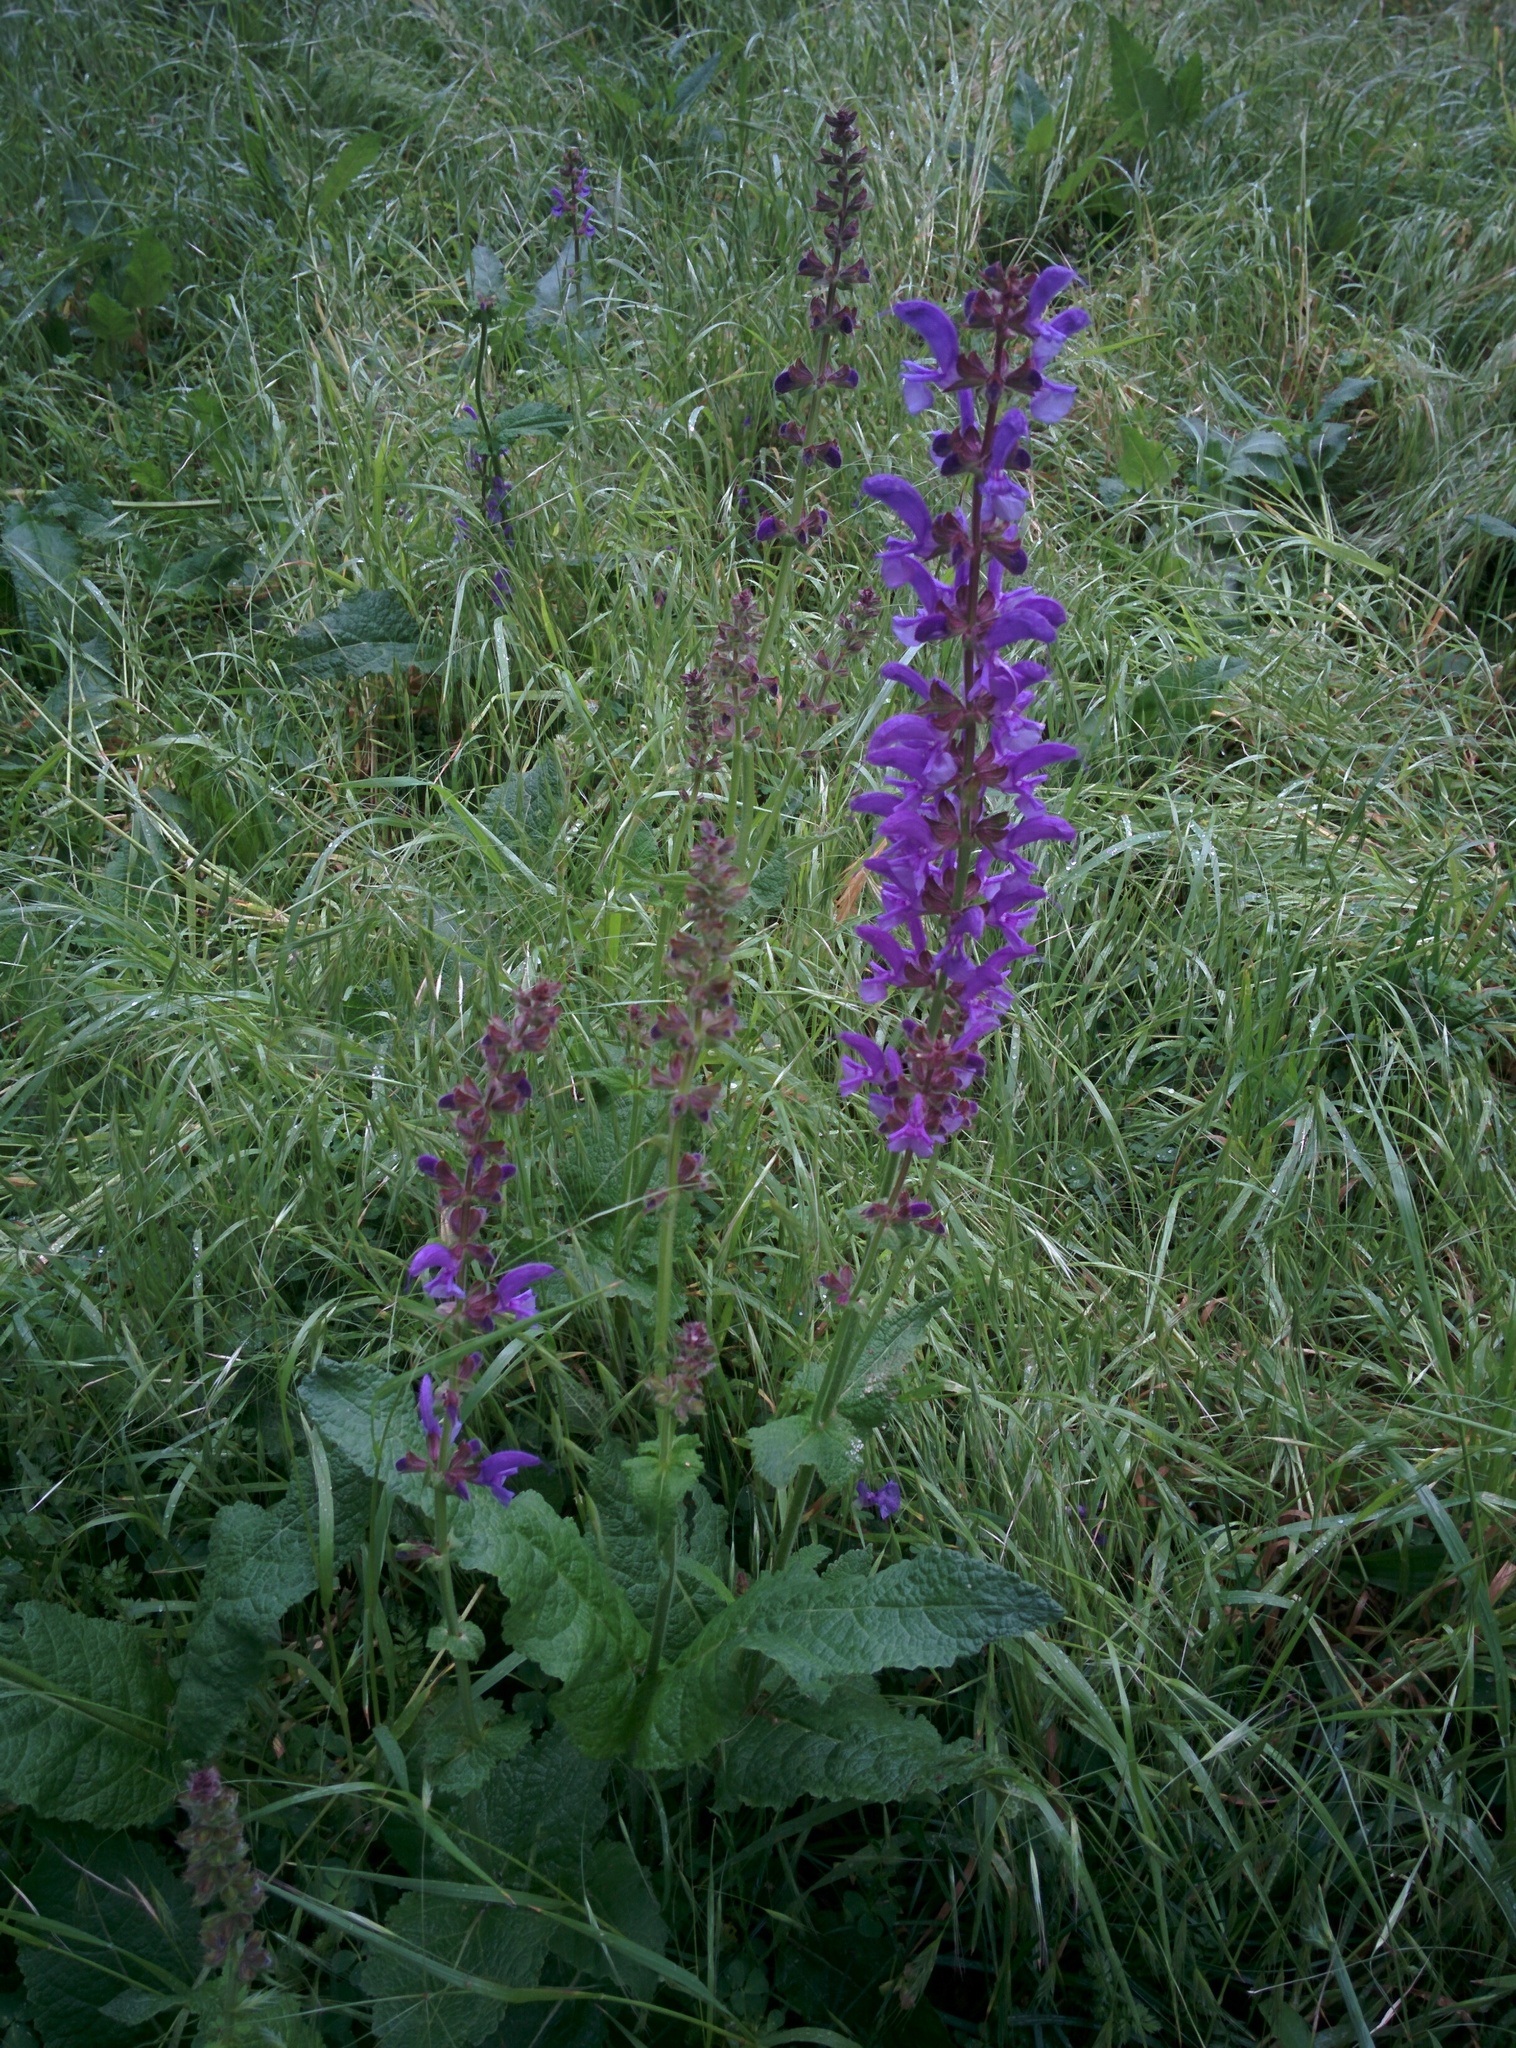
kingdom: Plantae
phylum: Tracheophyta
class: Magnoliopsida
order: Lamiales
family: Lamiaceae
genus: Salvia
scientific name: Salvia pratensis
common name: Meadow sage
